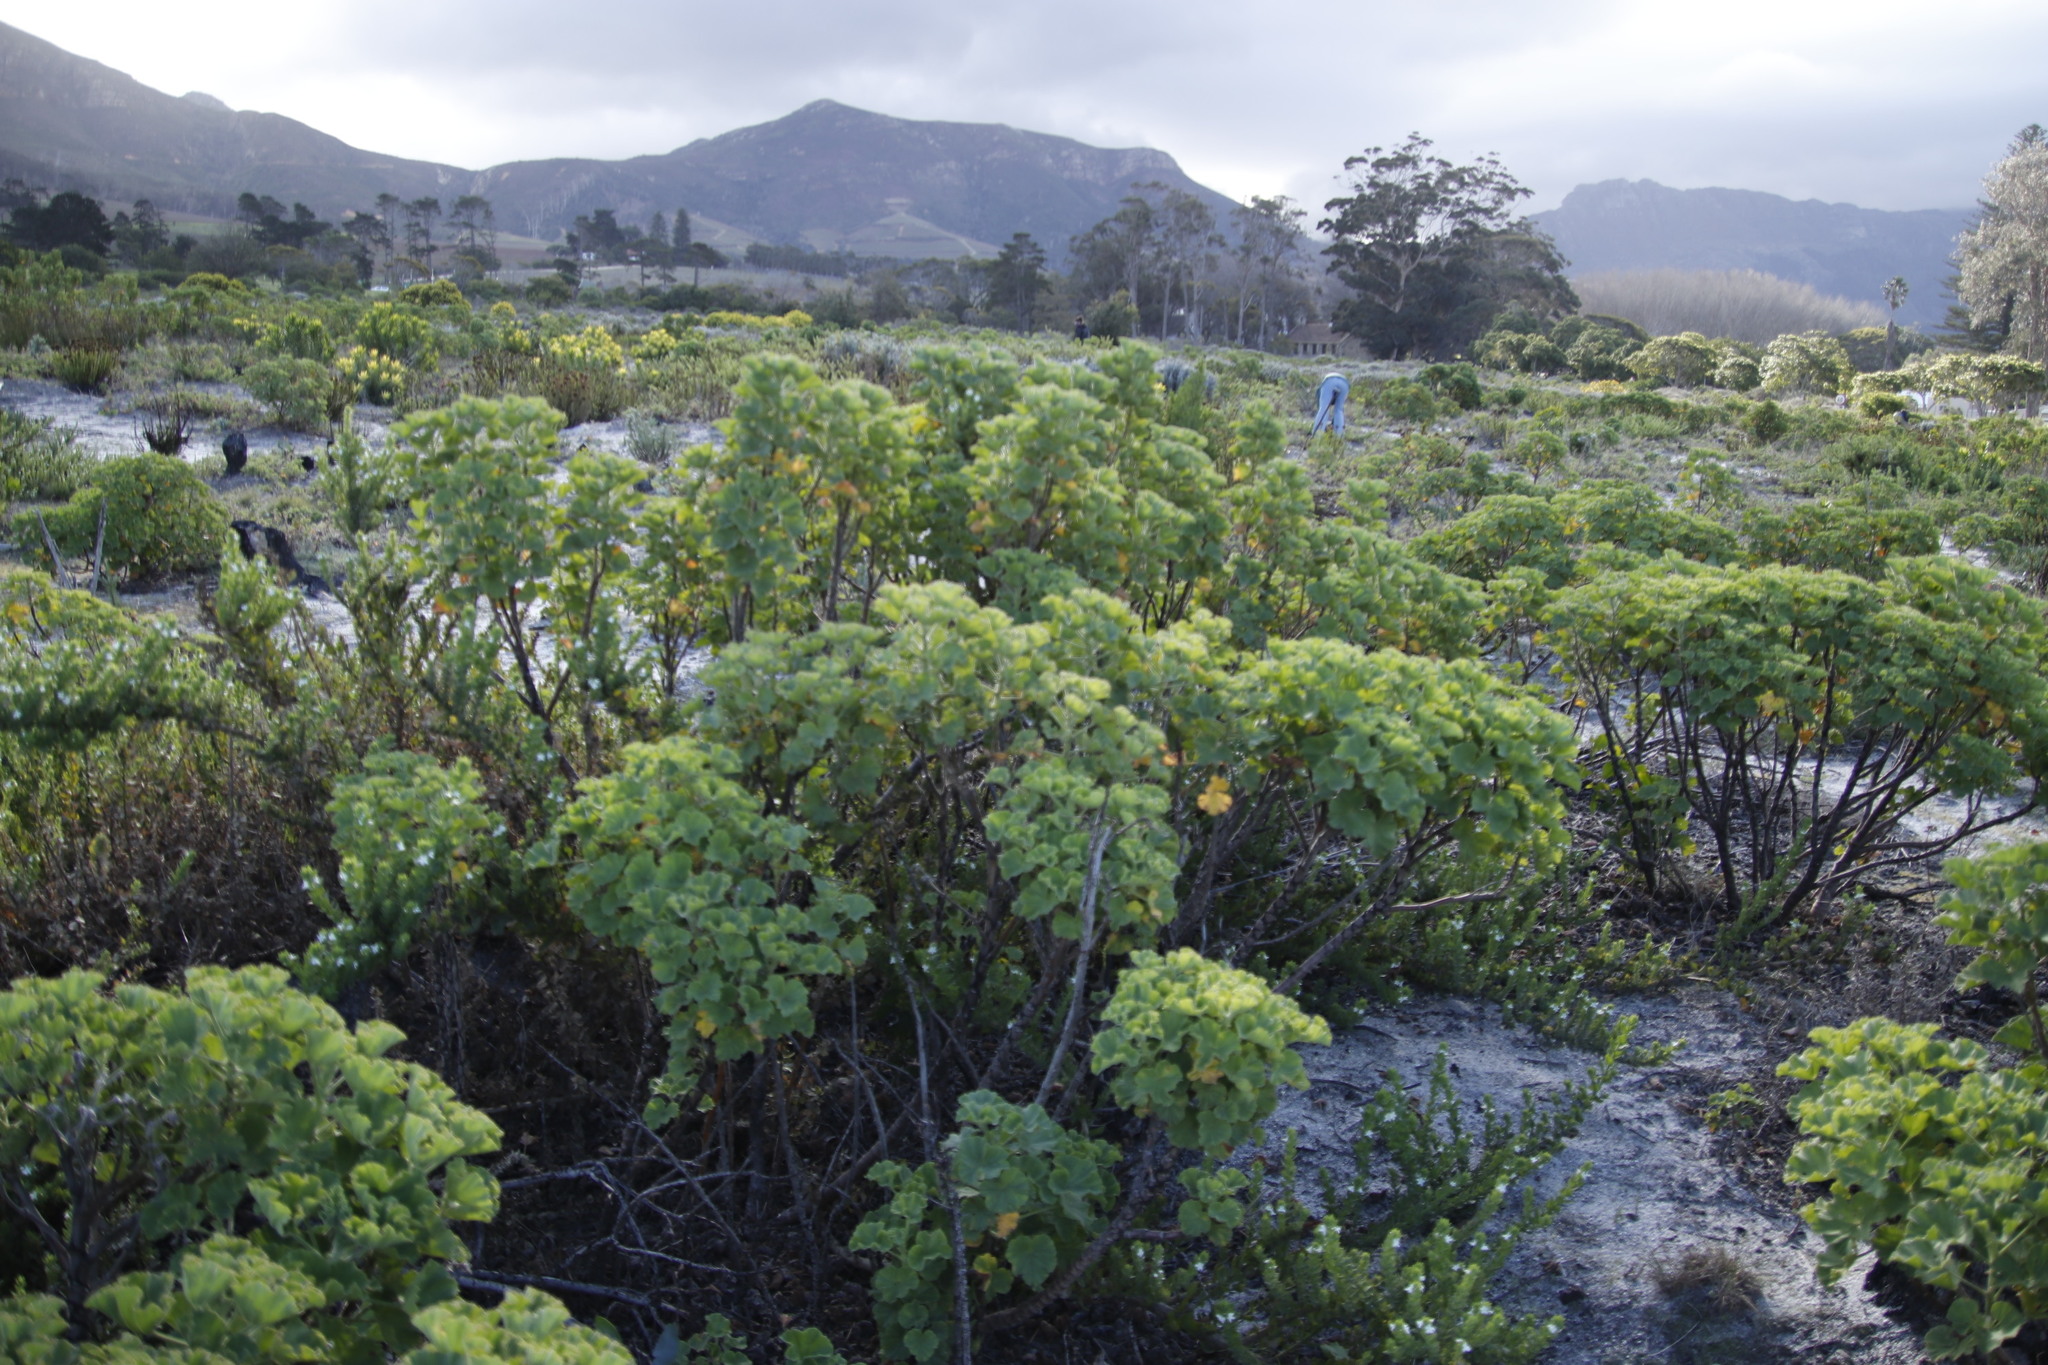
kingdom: Plantae
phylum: Tracheophyta
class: Magnoliopsida
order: Geraniales
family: Geraniaceae
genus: Pelargonium
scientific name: Pelargonium cucullatum
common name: Tree pelargonium
